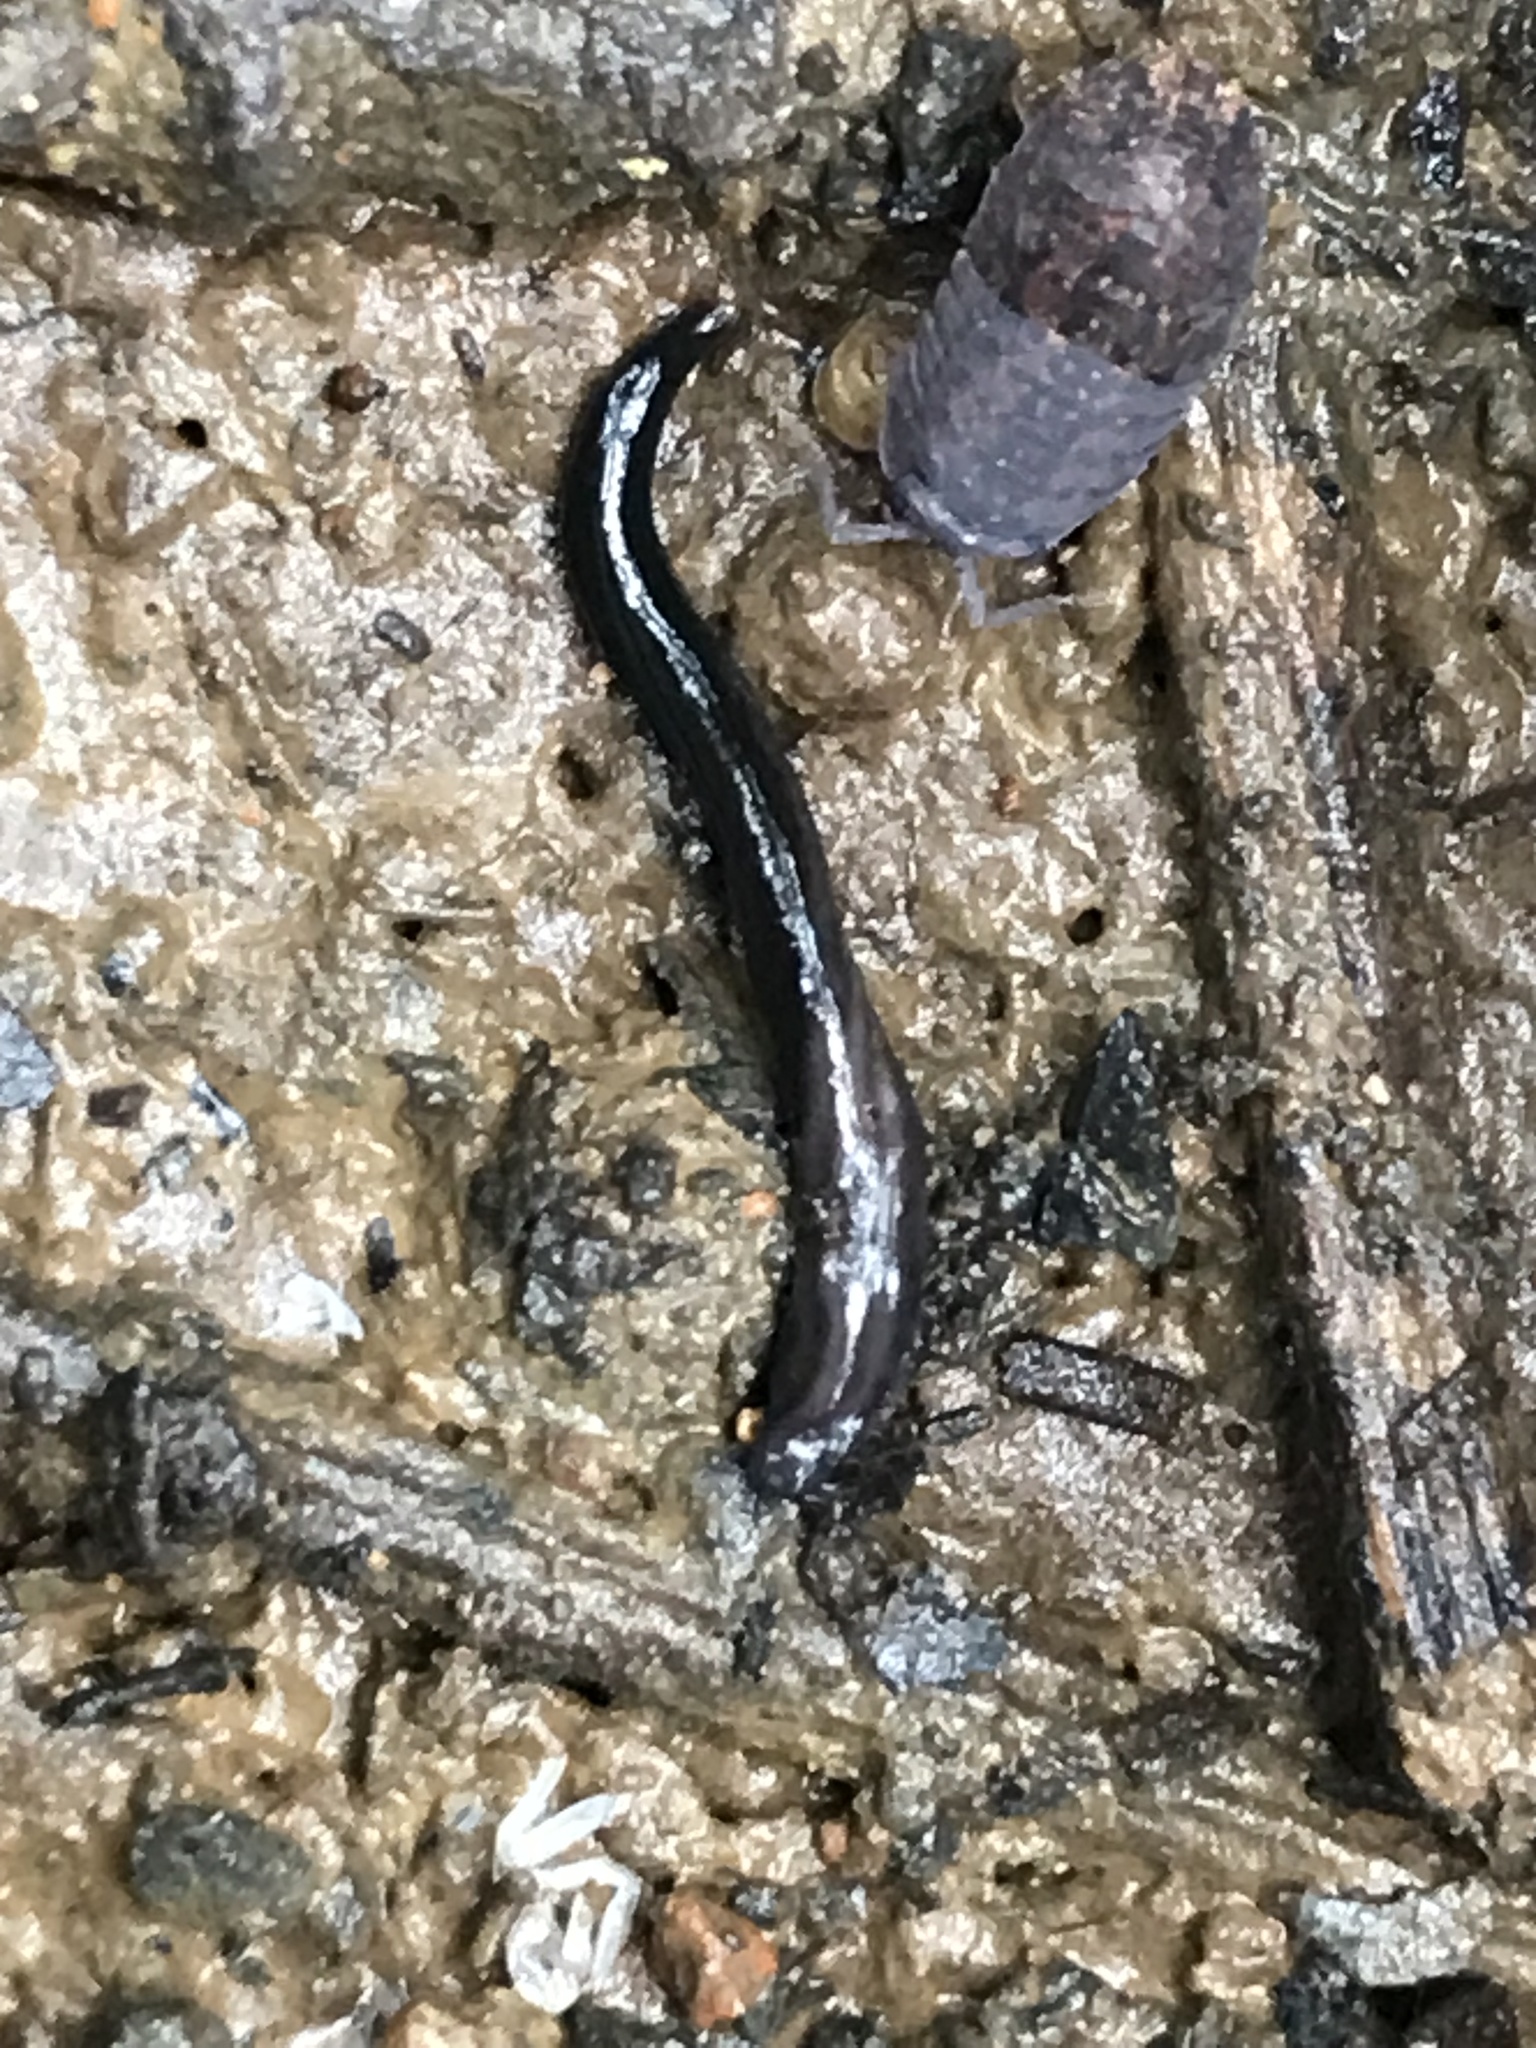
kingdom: Animalia
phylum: Platyhelminthes
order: Tricladida
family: Geoplanidae
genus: Parakontikia
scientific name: Parakontikia ventrolineata
